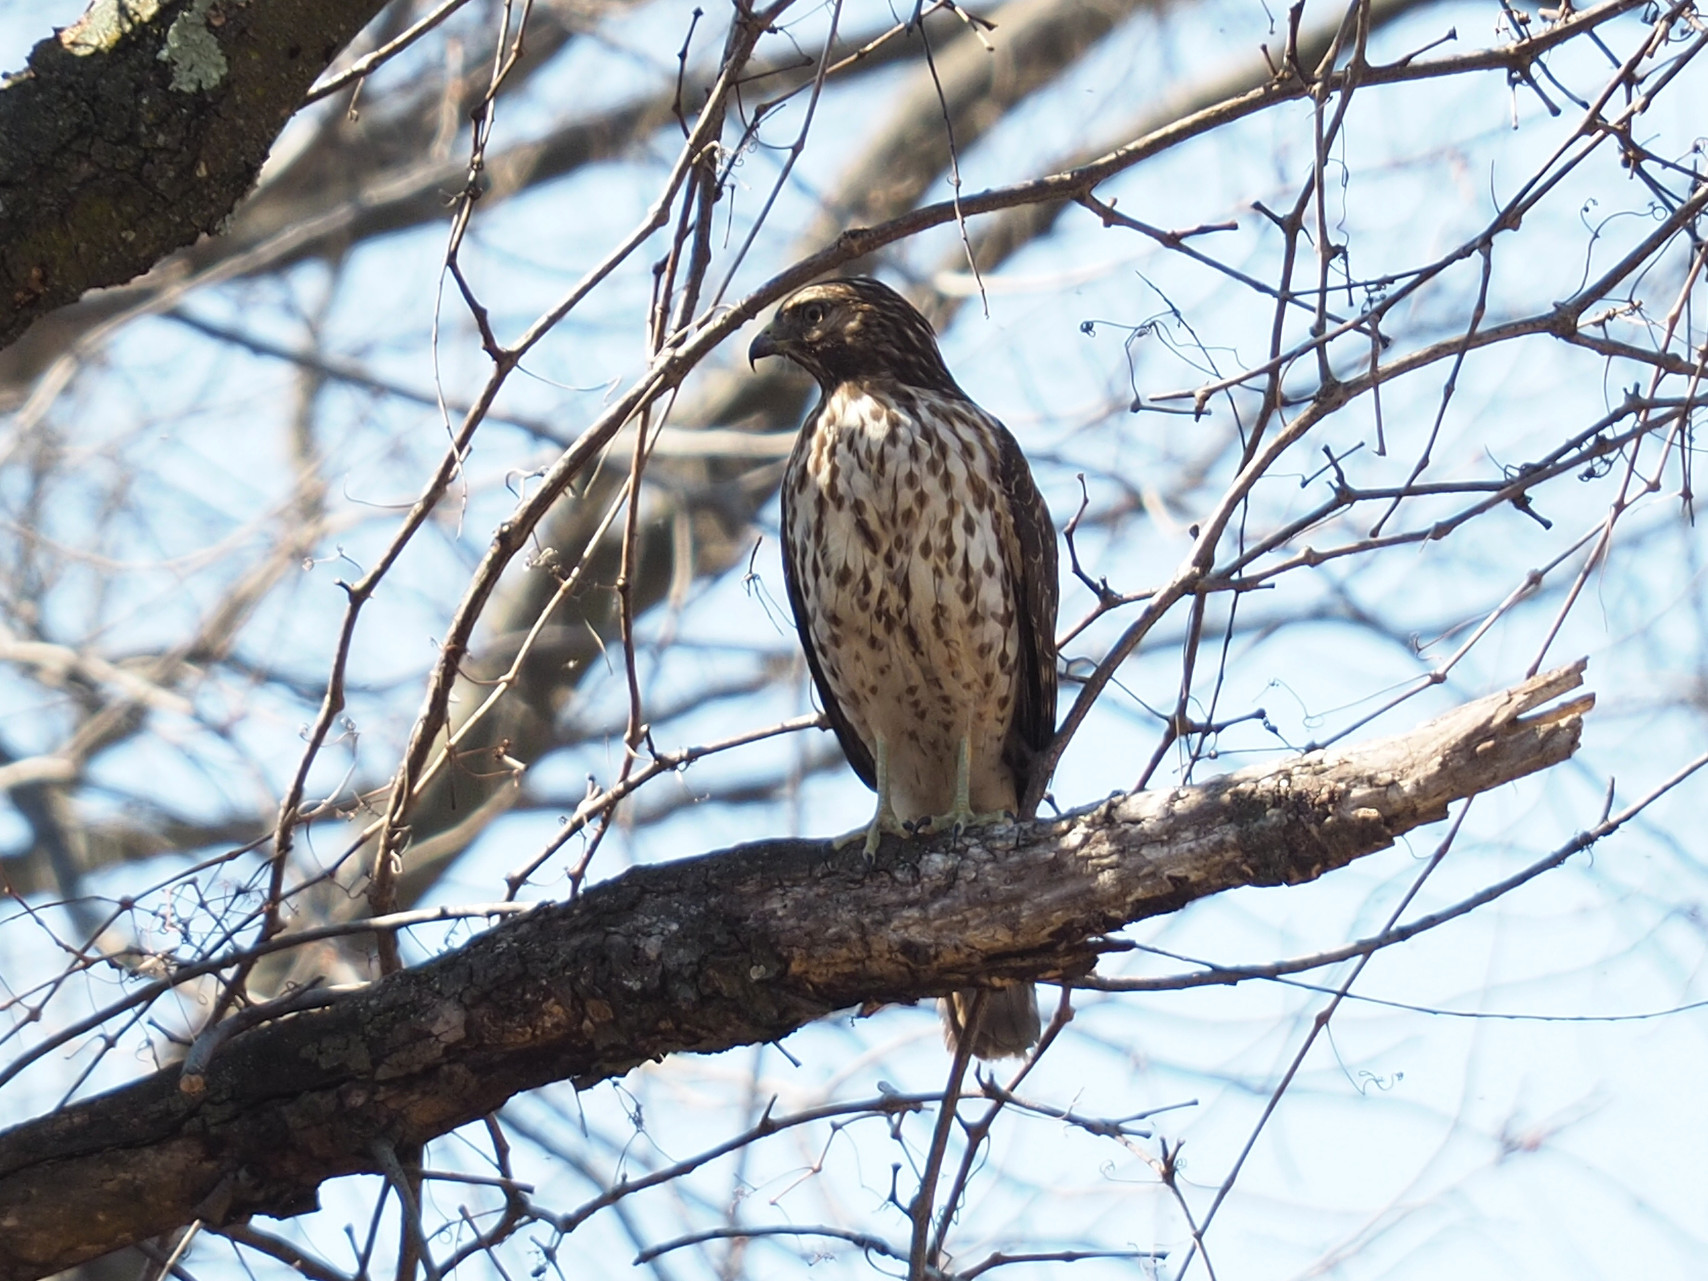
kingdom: Animalia
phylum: Chordata
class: Aves
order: Accipitriformes
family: Accipitridae
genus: Buteo
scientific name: Buteo lineatus
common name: Red-shouldered hawk
